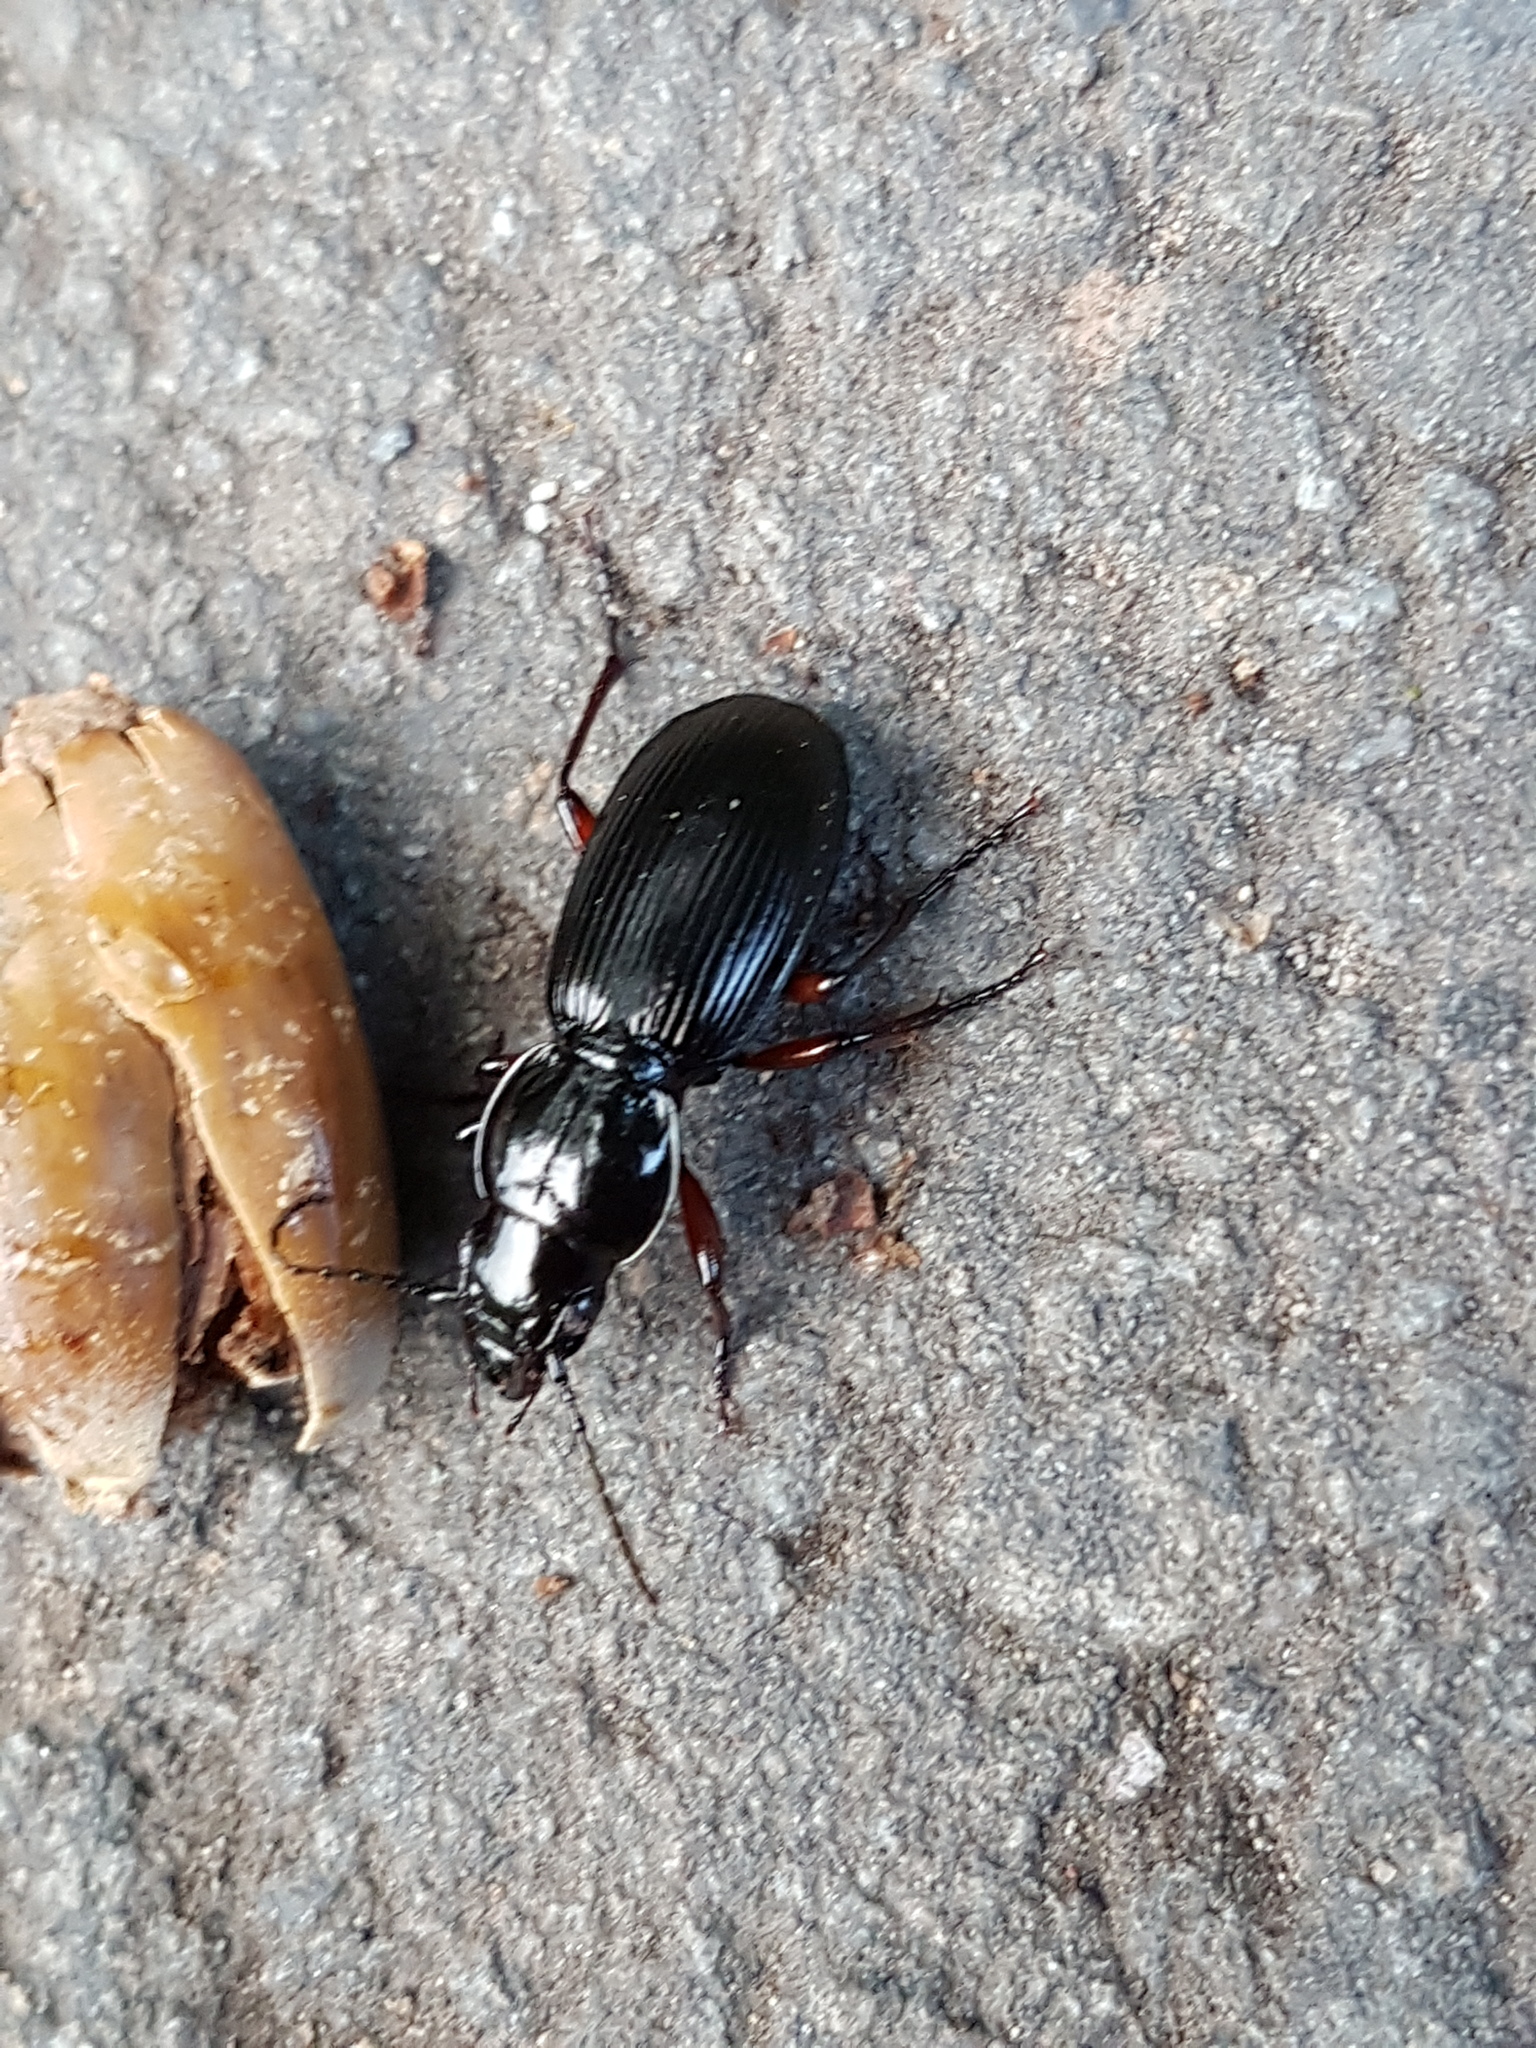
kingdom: Animalia
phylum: Arthropoda
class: Insecta
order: Coleoptera
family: Carabidae
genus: Pterostichus
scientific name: Pterostichus madidus
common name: Black clock
